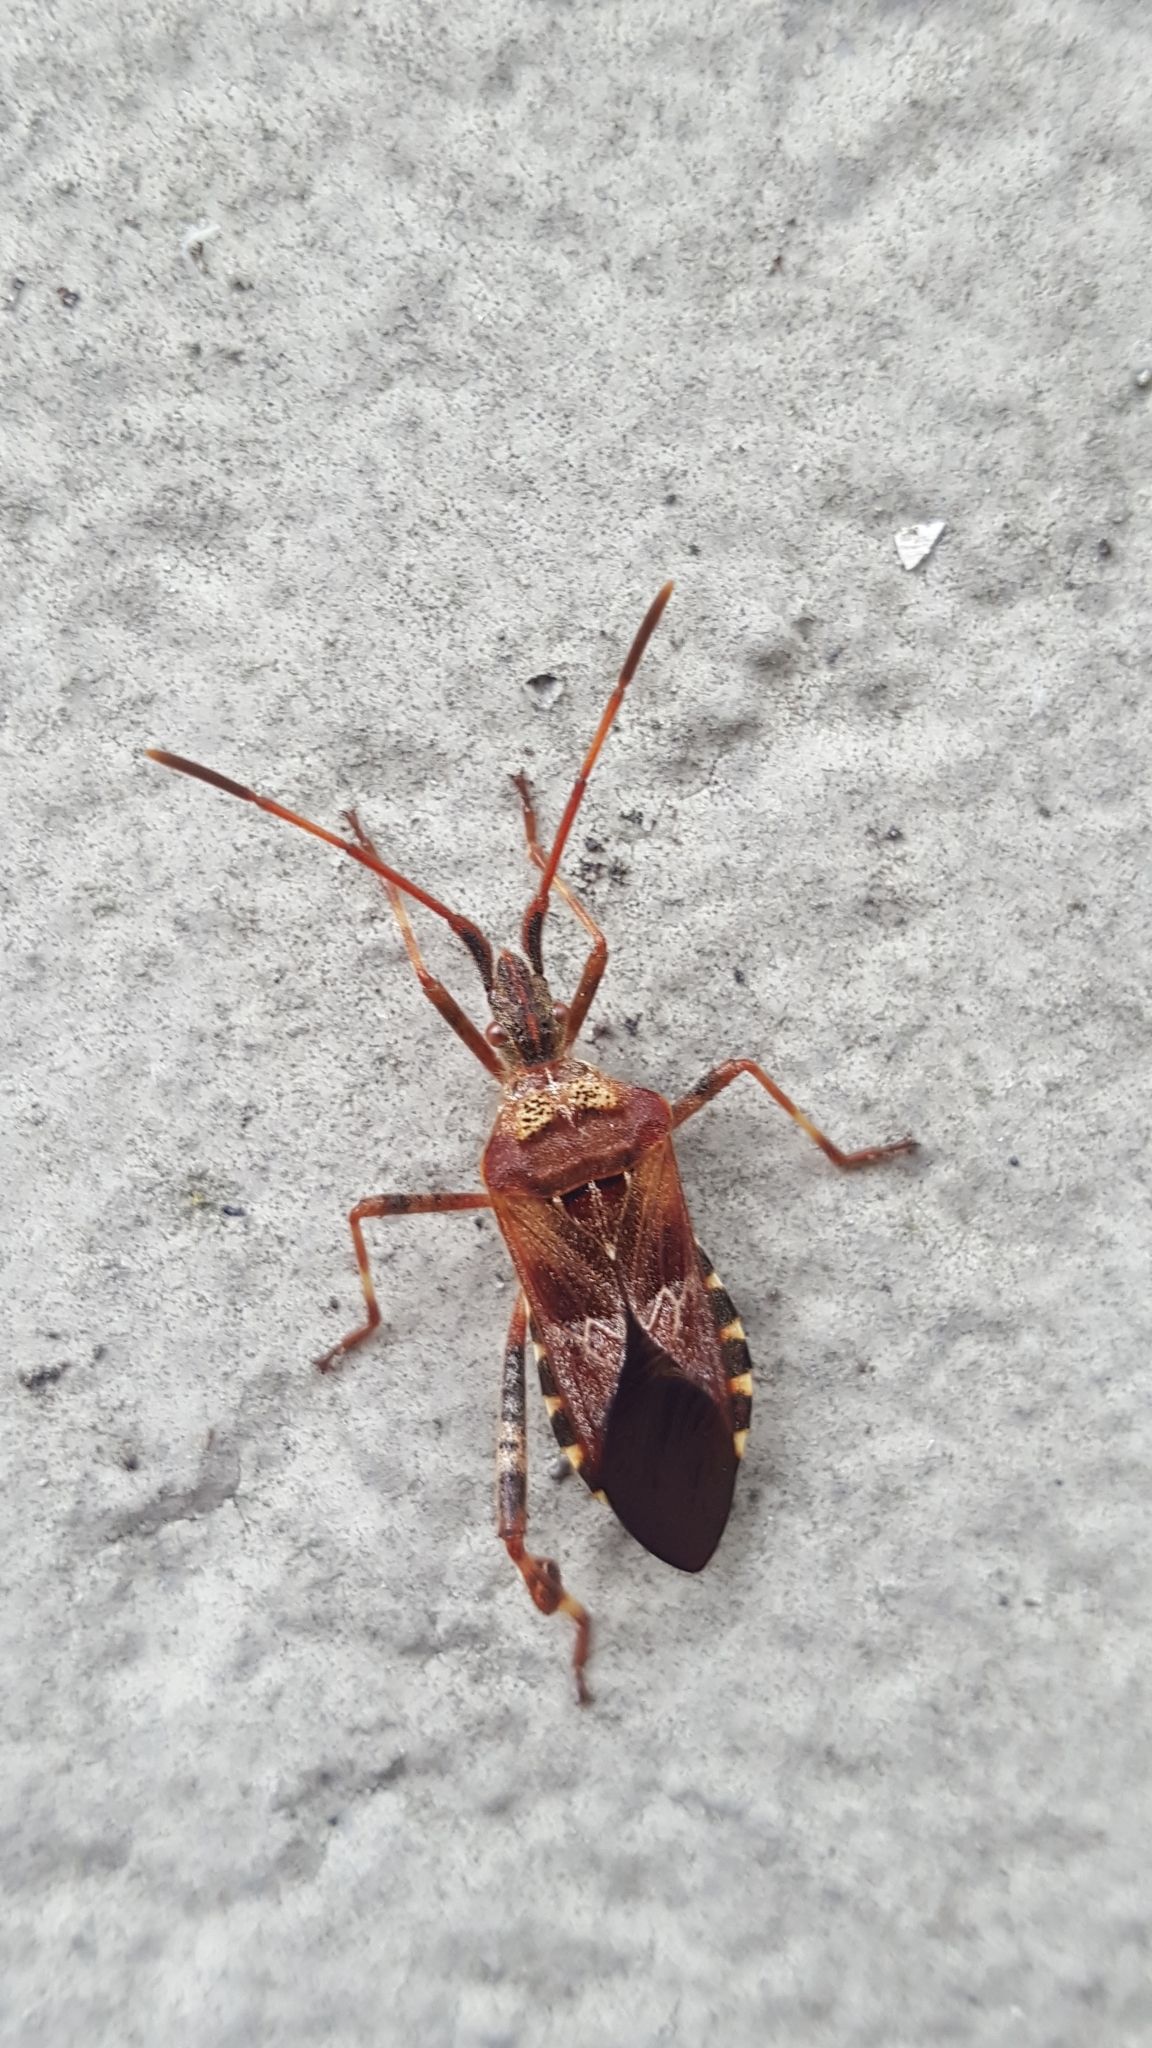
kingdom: Animalia
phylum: Arthropoda
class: Insecta
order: Hemiptera
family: Coreidae
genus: Leptoglossus
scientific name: Leptoglossus occidentalis
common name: Western conifer-seed bug
